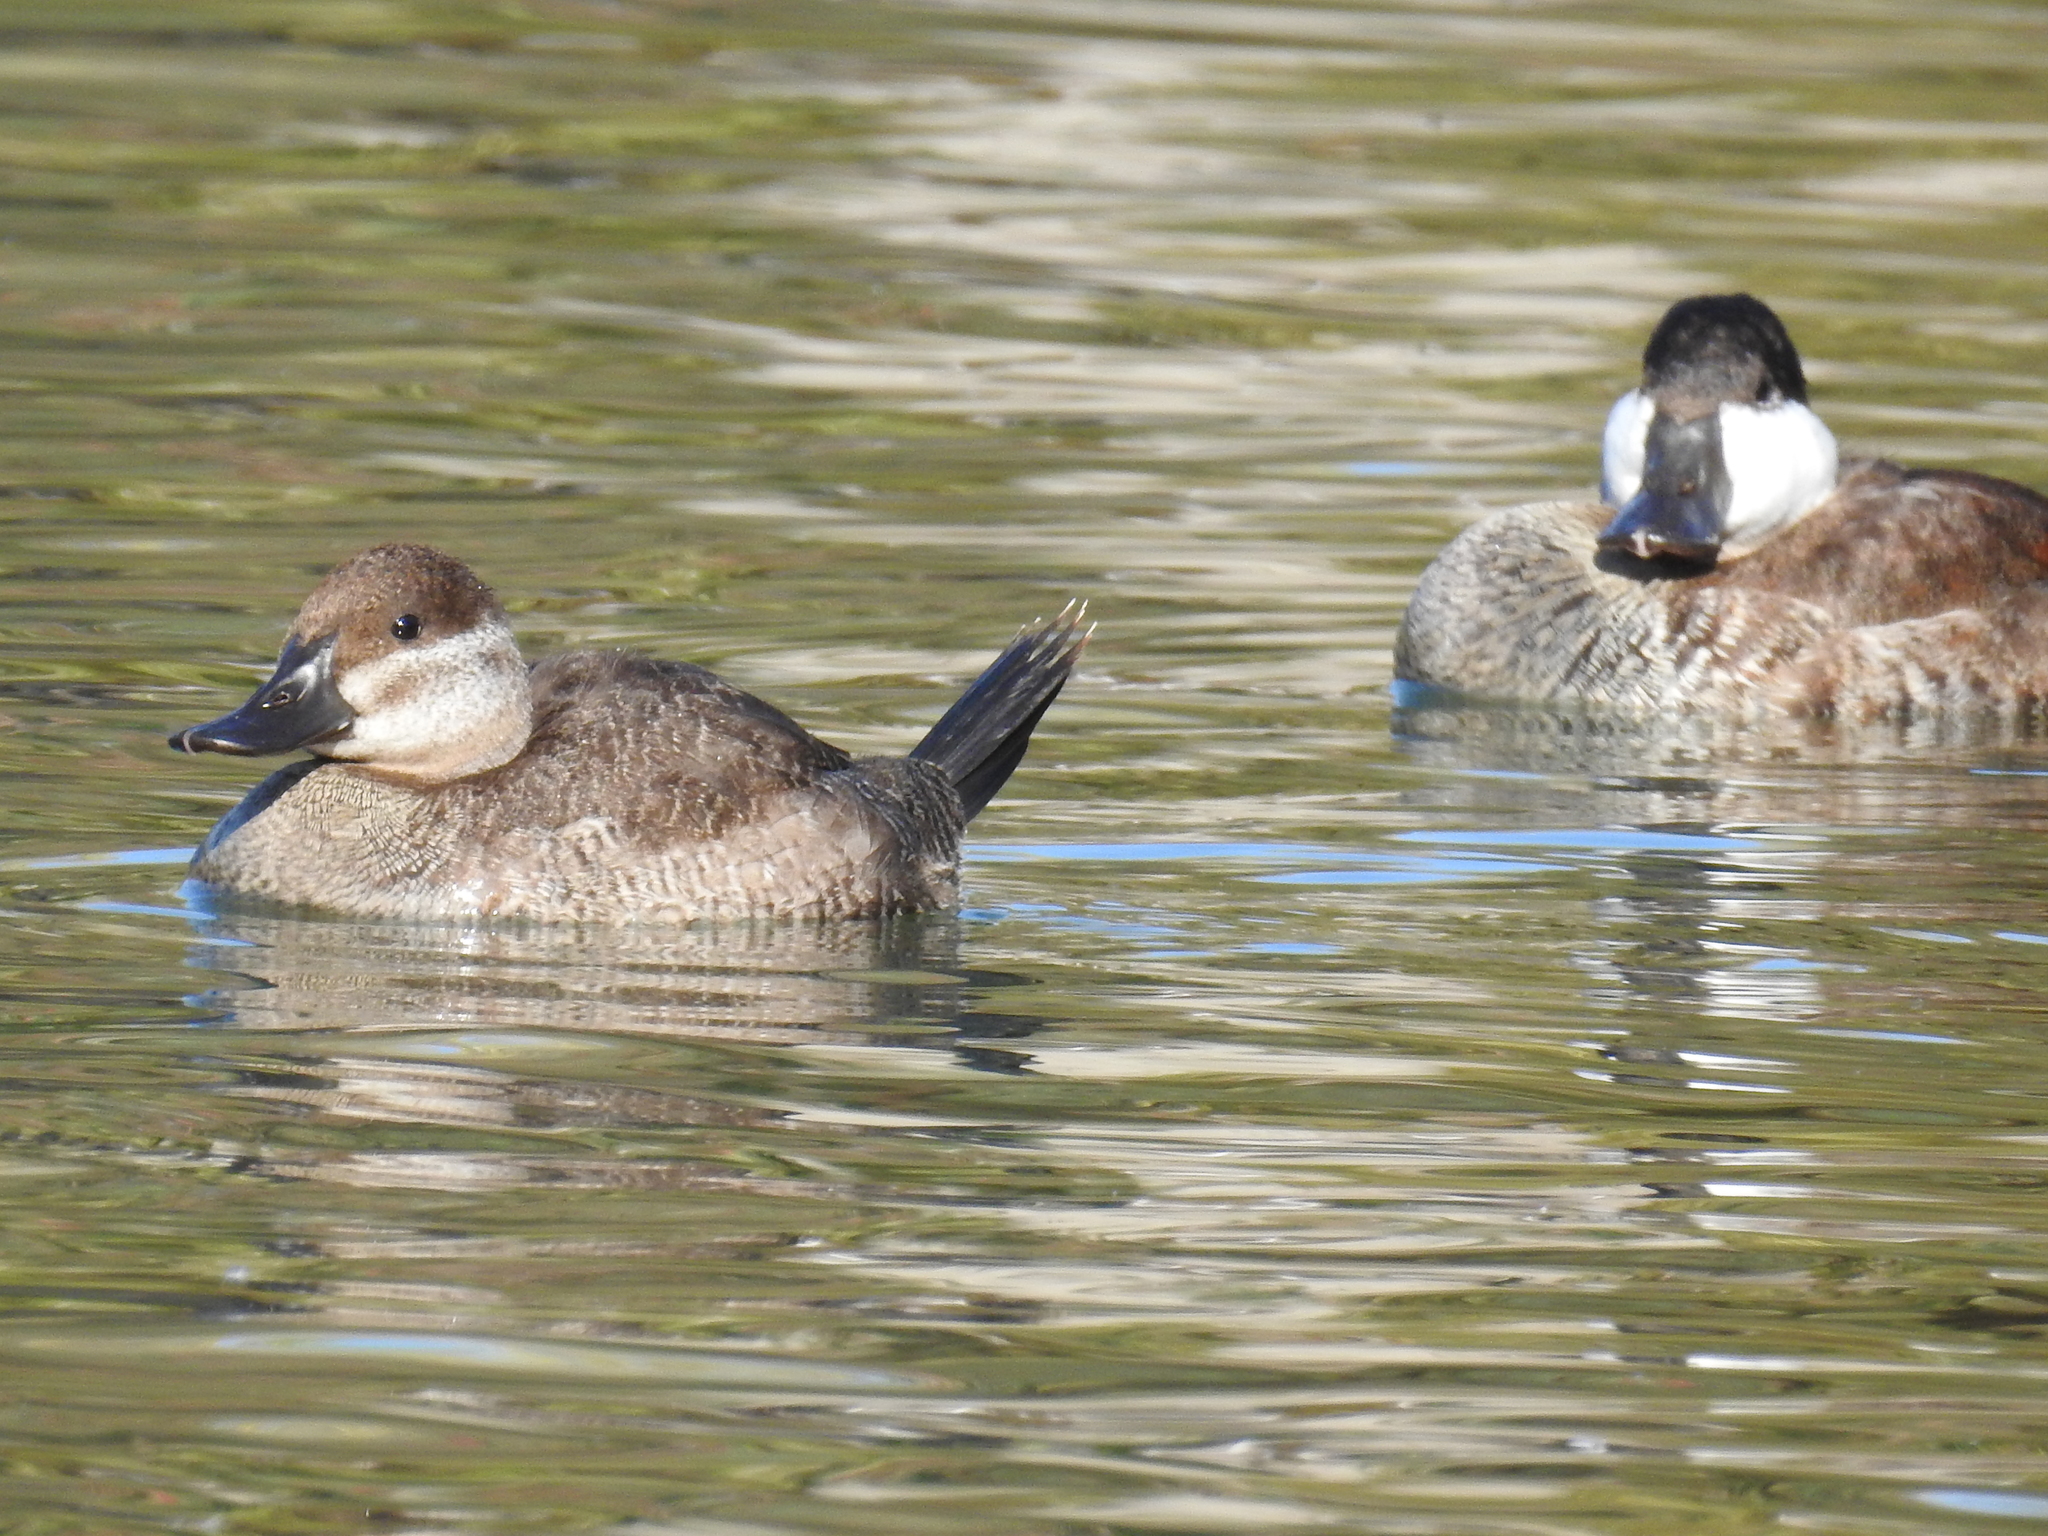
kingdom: Animalia
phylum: Chordata
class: Aves
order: Anseriformes
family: Anatidae
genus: Oxyura
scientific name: Oxyura jamaicensis
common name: Ruddy duck
